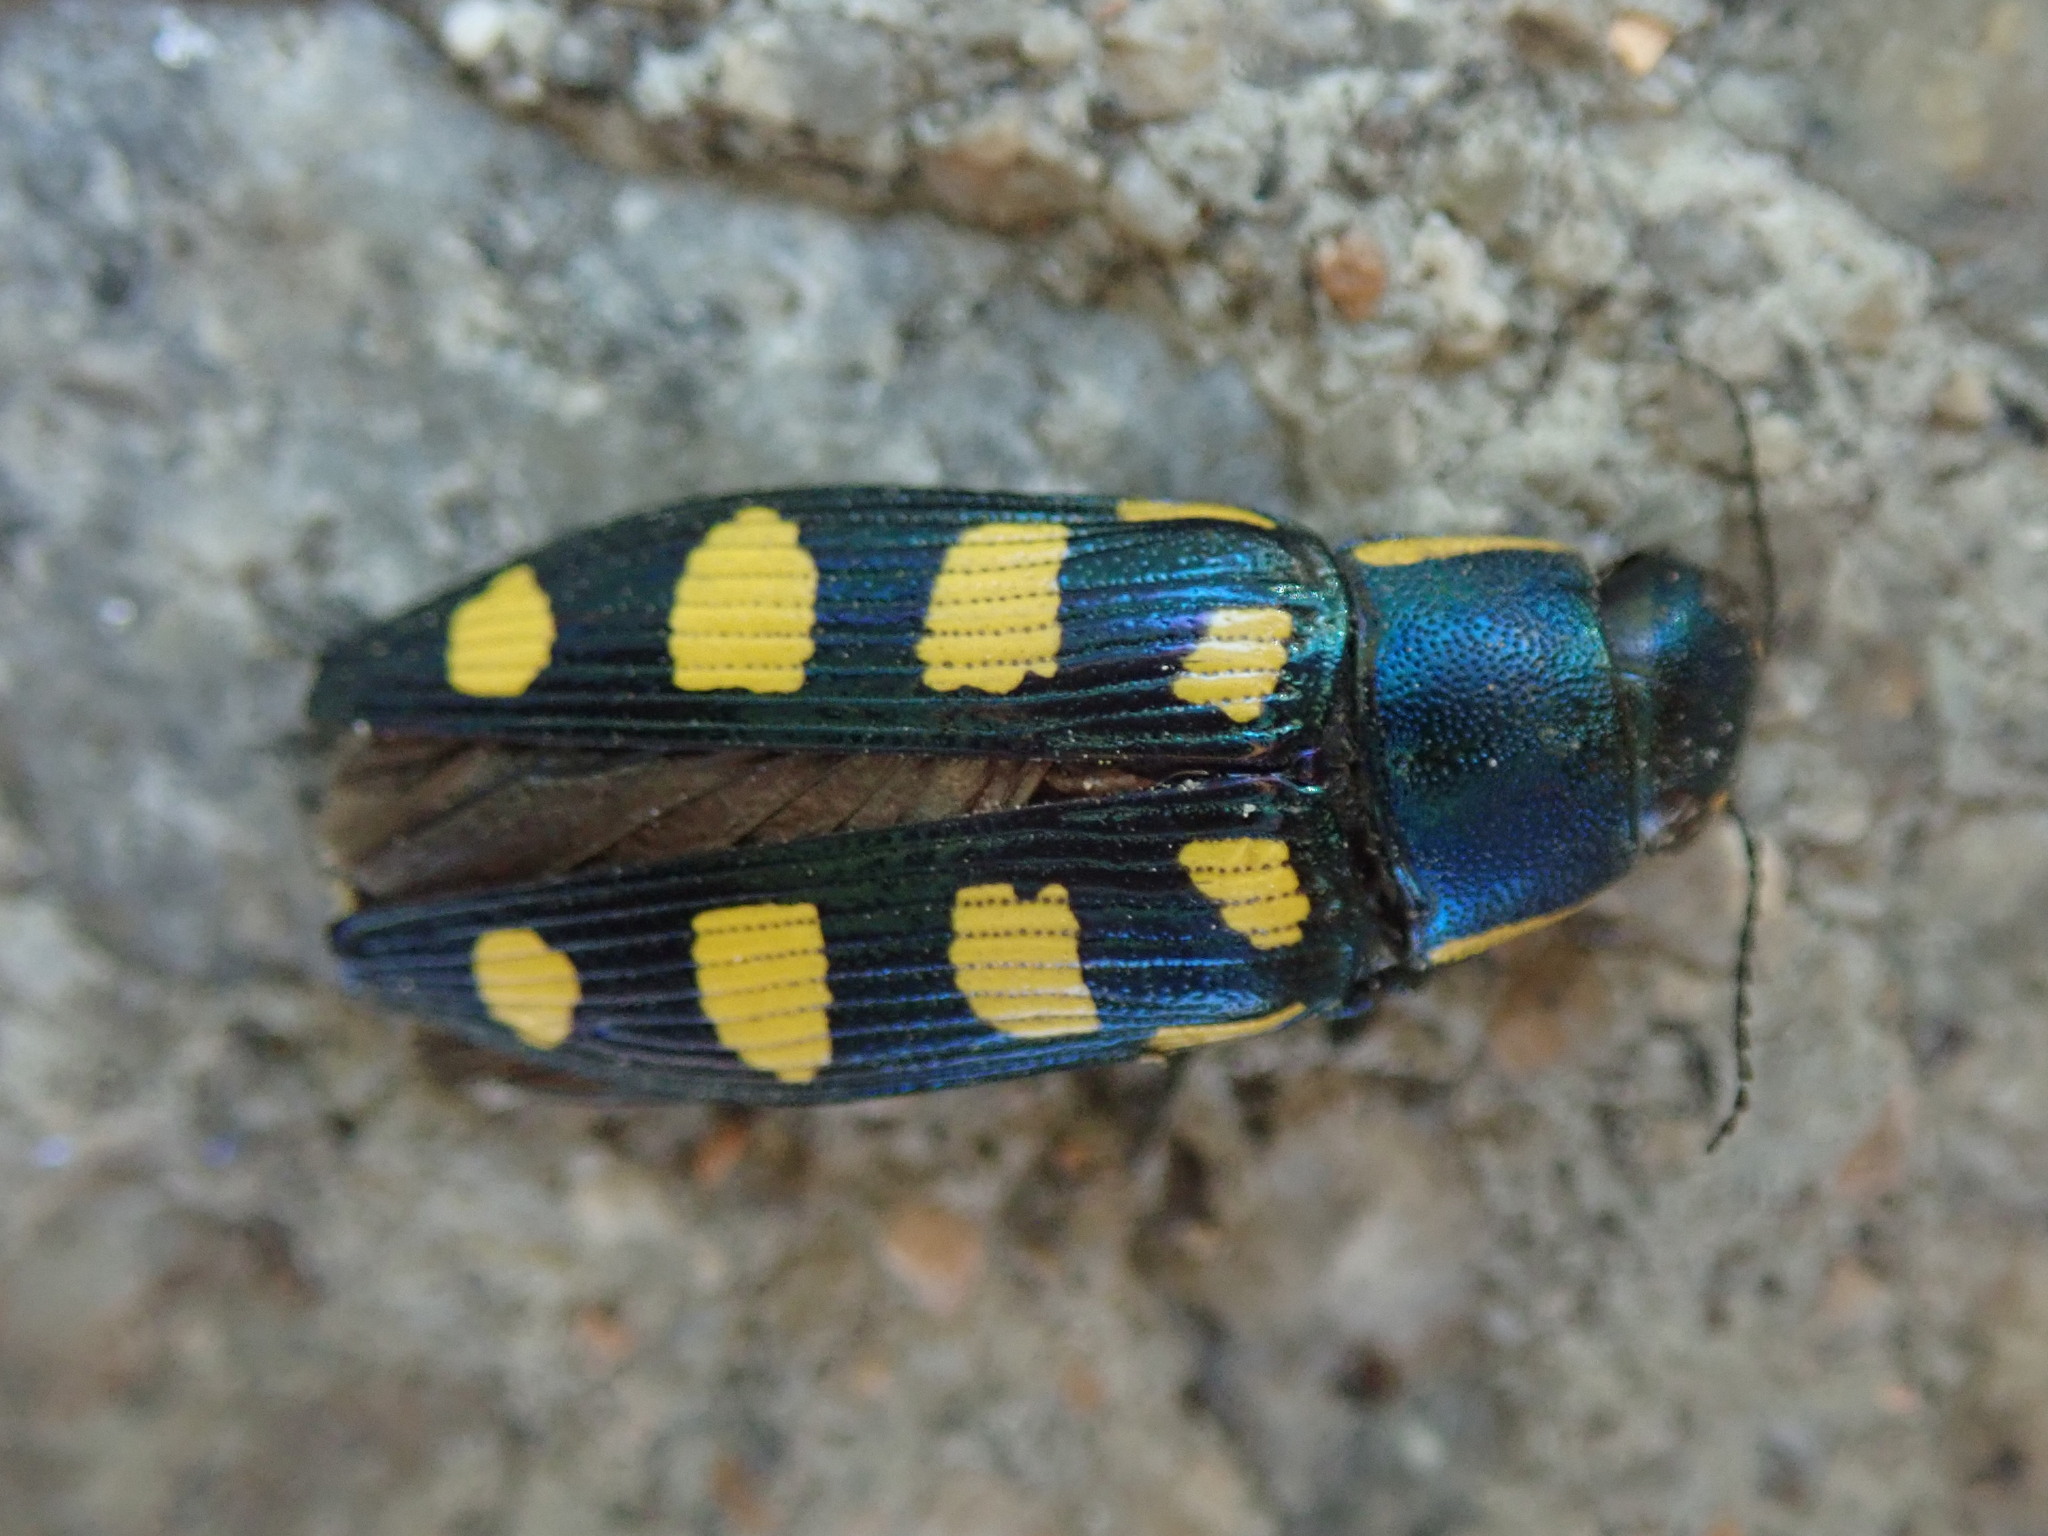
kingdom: Animalia
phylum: Arthropoda
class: Insecta
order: Coleoptera
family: Buprestidae
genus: Buprestis
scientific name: Buprestis octoguttata
